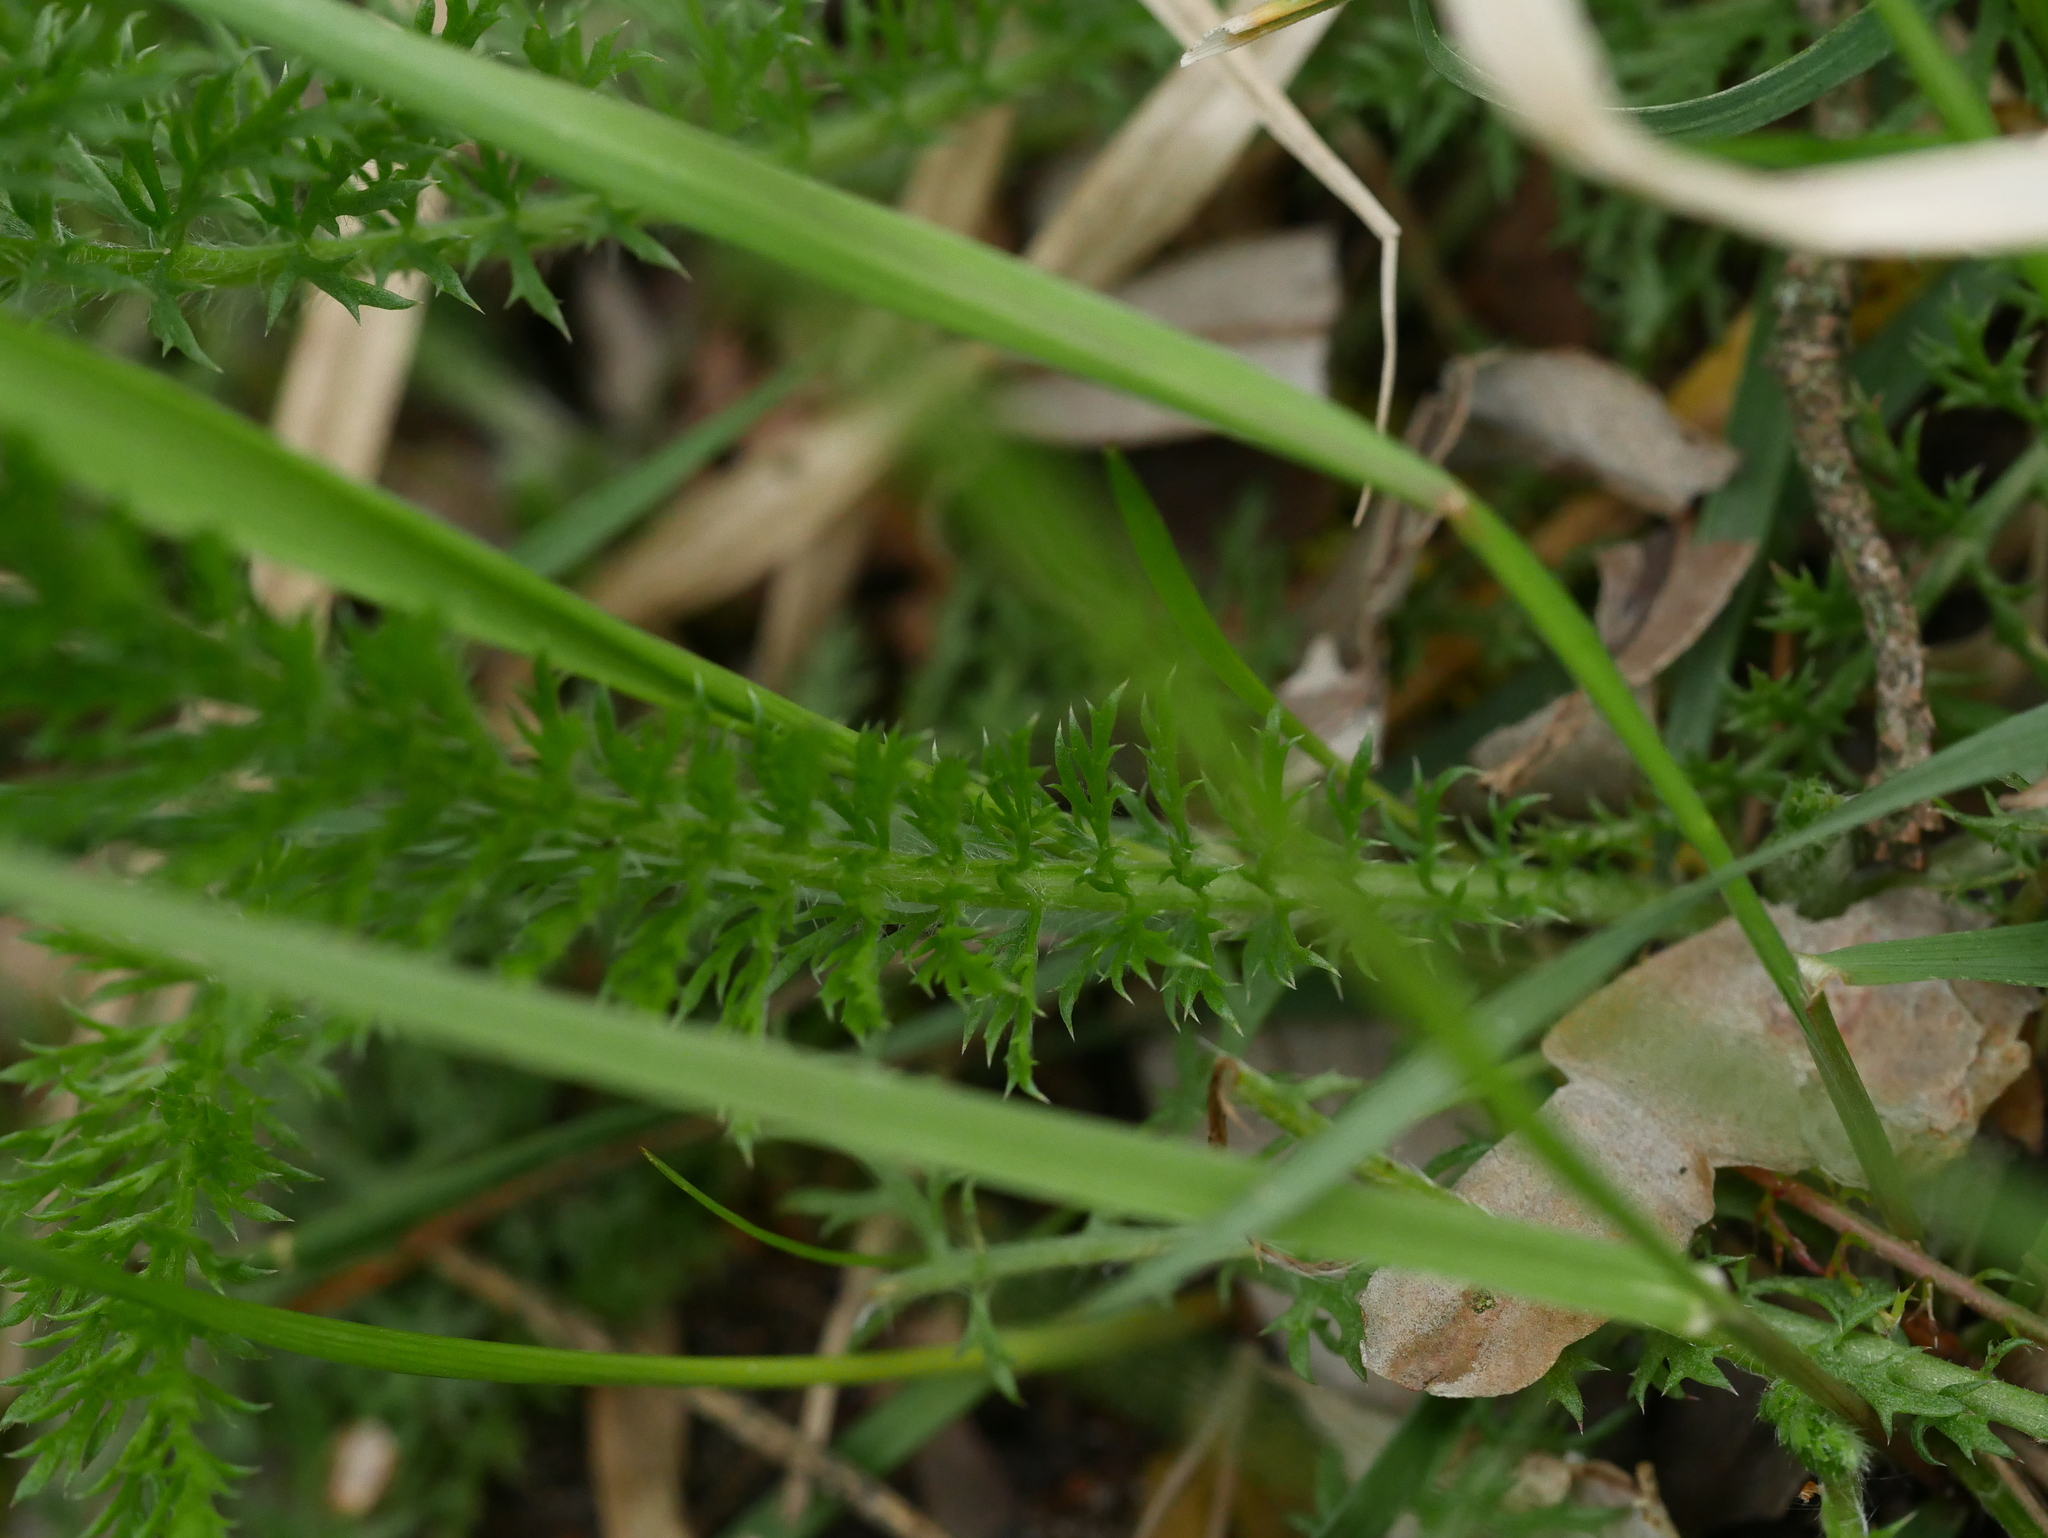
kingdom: Plantae
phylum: Tracheophyta
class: Magnoliopsida
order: Asterales
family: Asteraceae
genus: Achillea
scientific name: Achillea millefolium
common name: Yarrow
